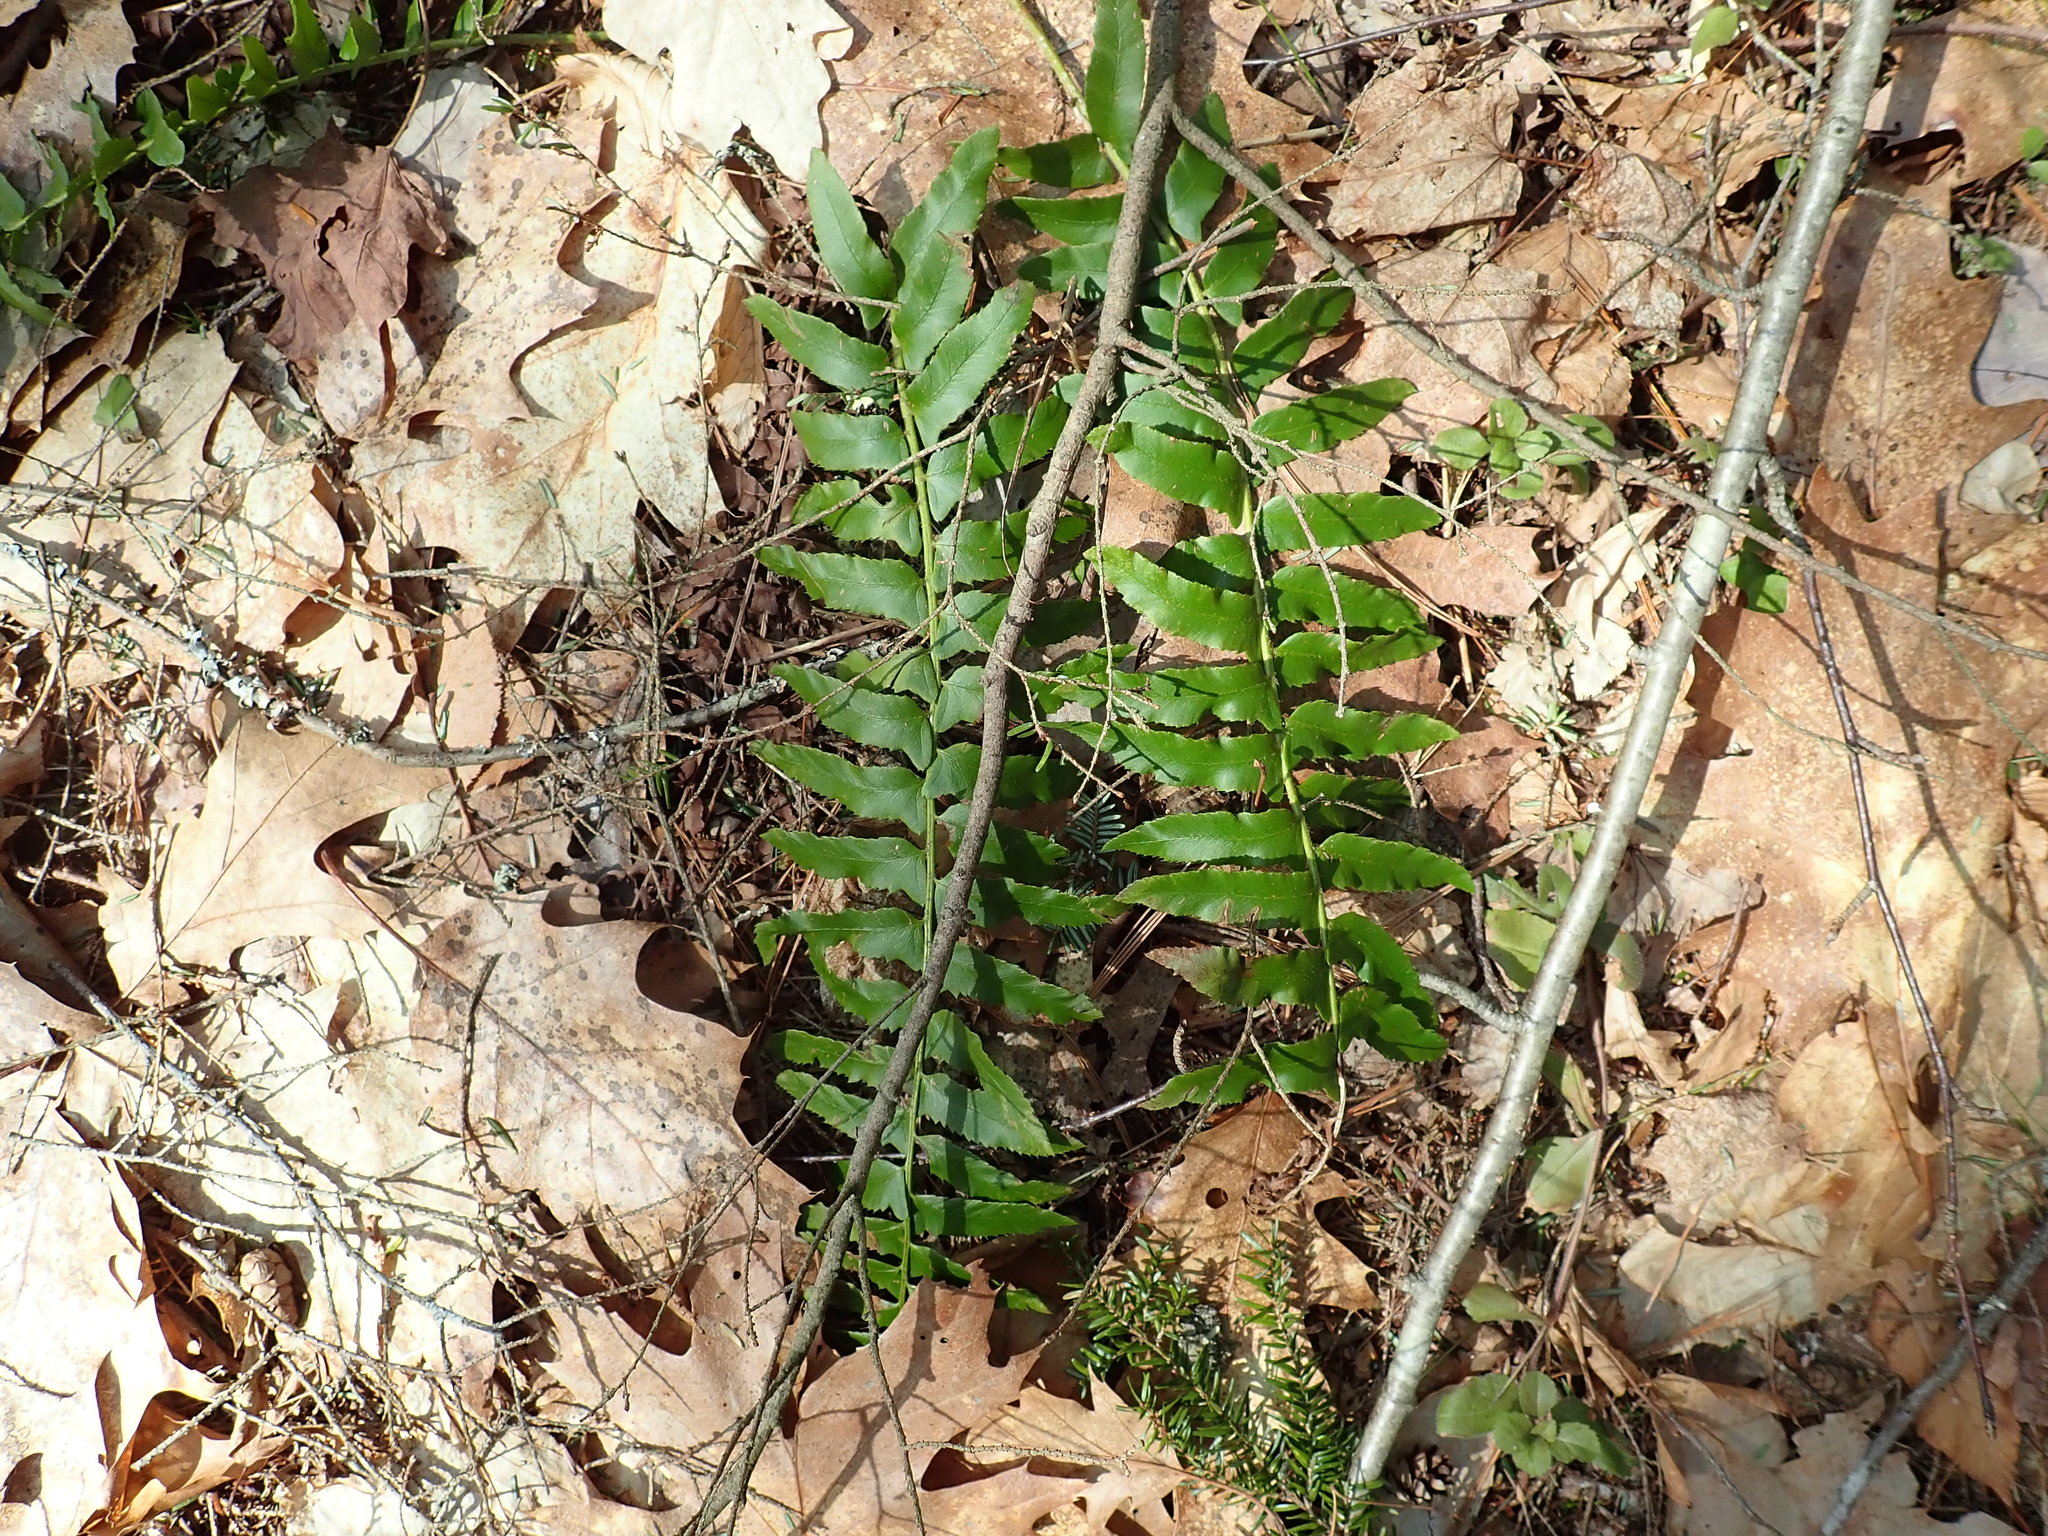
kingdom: Plantae
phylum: Tracheophyta
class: Polypodiopsida
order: Polypodiales
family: Dryopteridaceae
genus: Polystichum
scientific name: Polystichum acrostichoides
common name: Christmas fern
